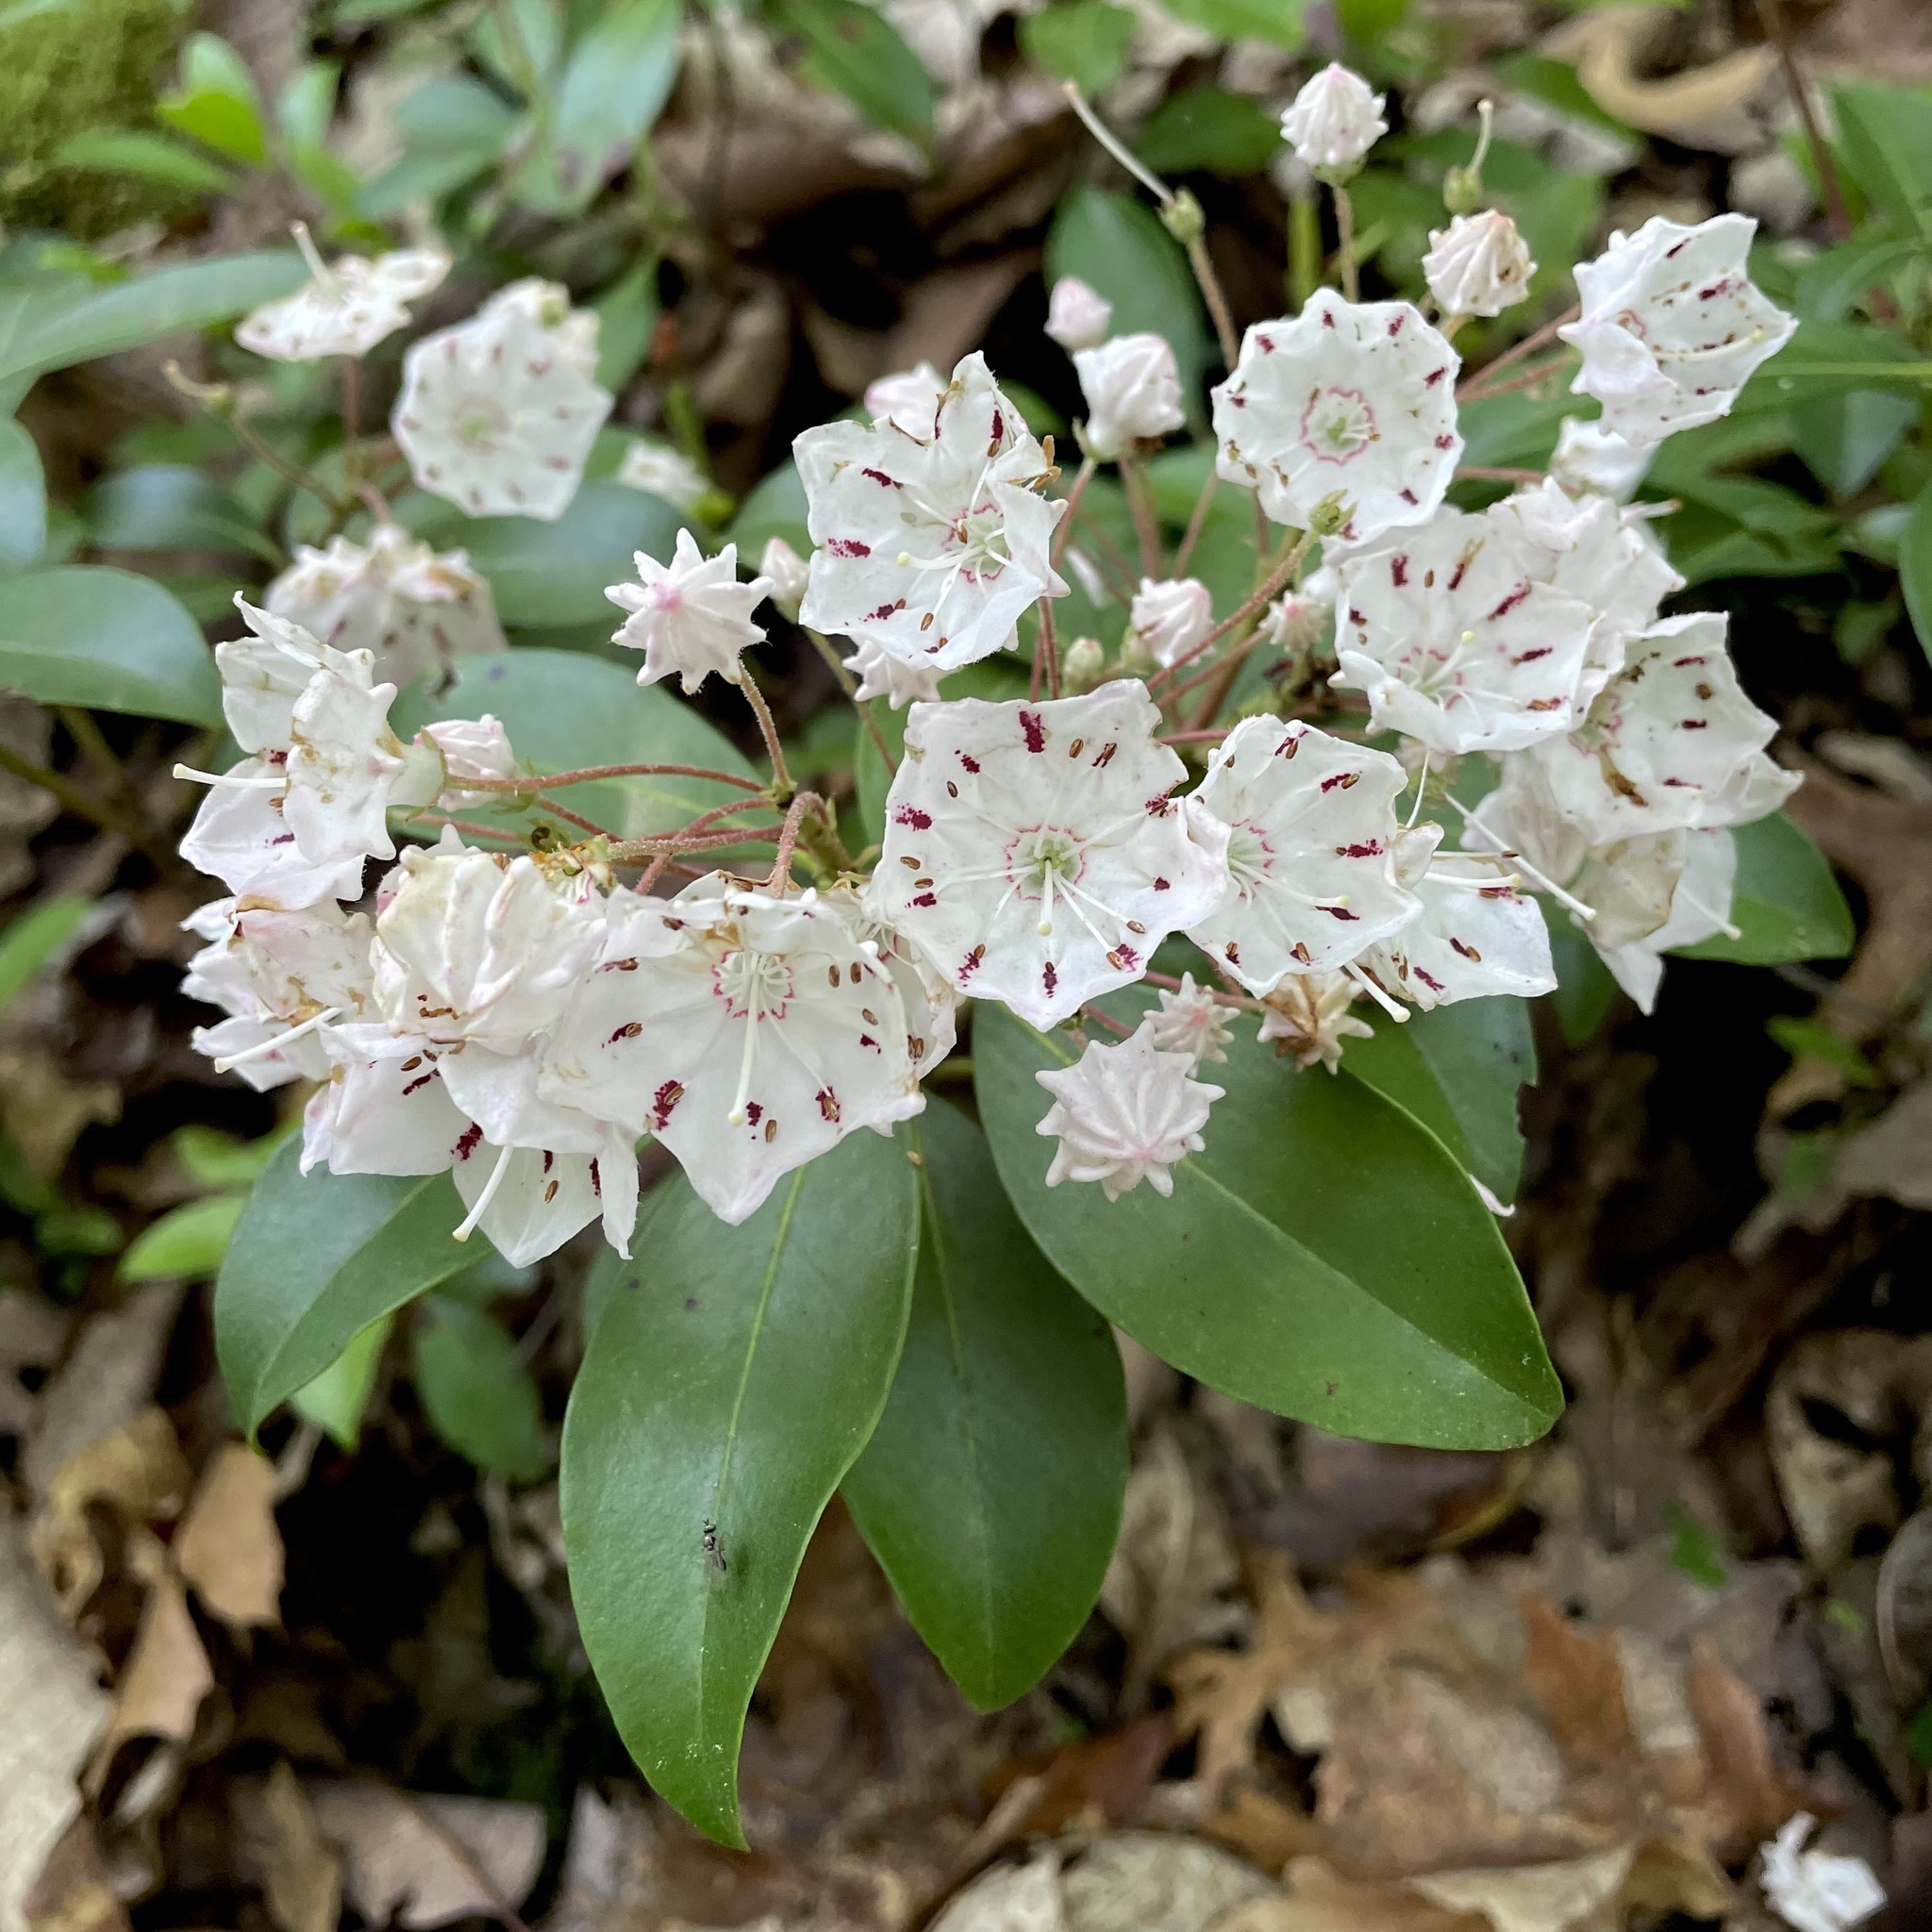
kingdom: Plantae
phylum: Tracheophyta
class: Magnoliopsida
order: Ericales
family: Ericaceae
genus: Kalmia
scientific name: Kalmia latifolia
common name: Mountain-laurel
